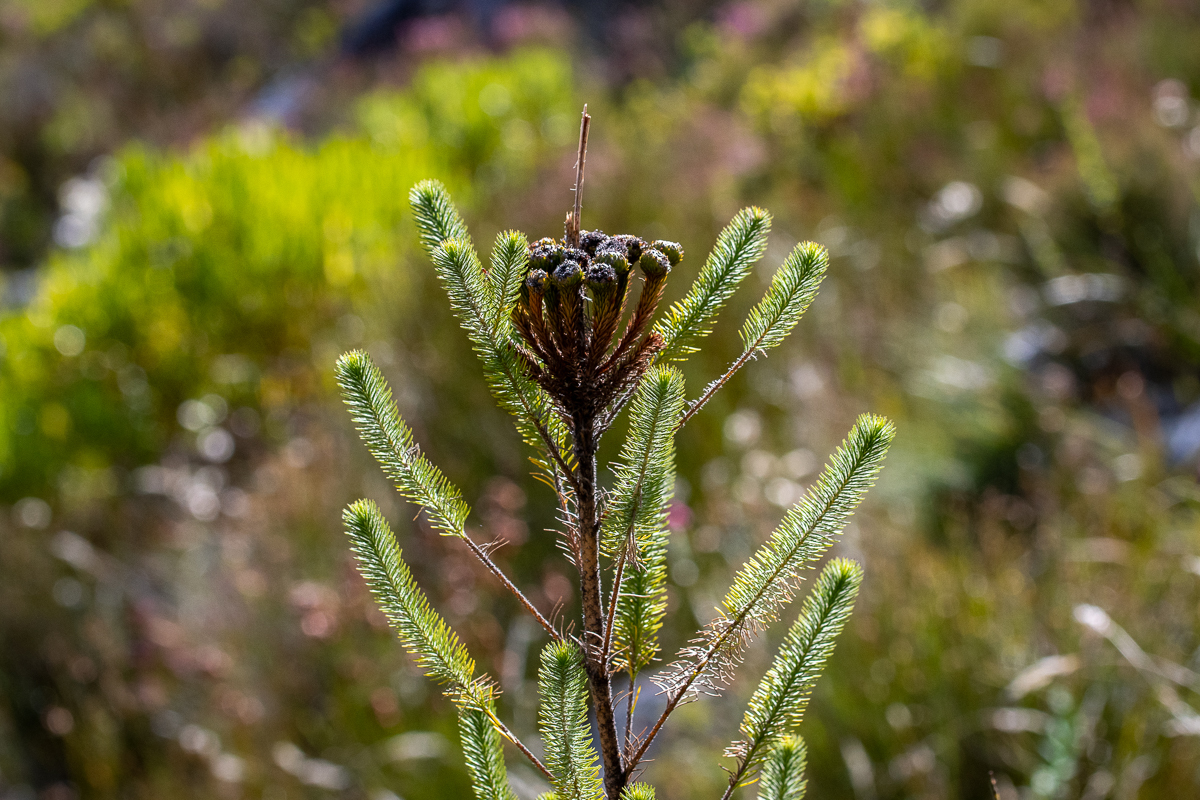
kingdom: Plantae
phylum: Tracheophyta
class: Magnoliopsida
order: Bruniales
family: Bruniaceae
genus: Berzelia
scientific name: Berzelia albiflora
